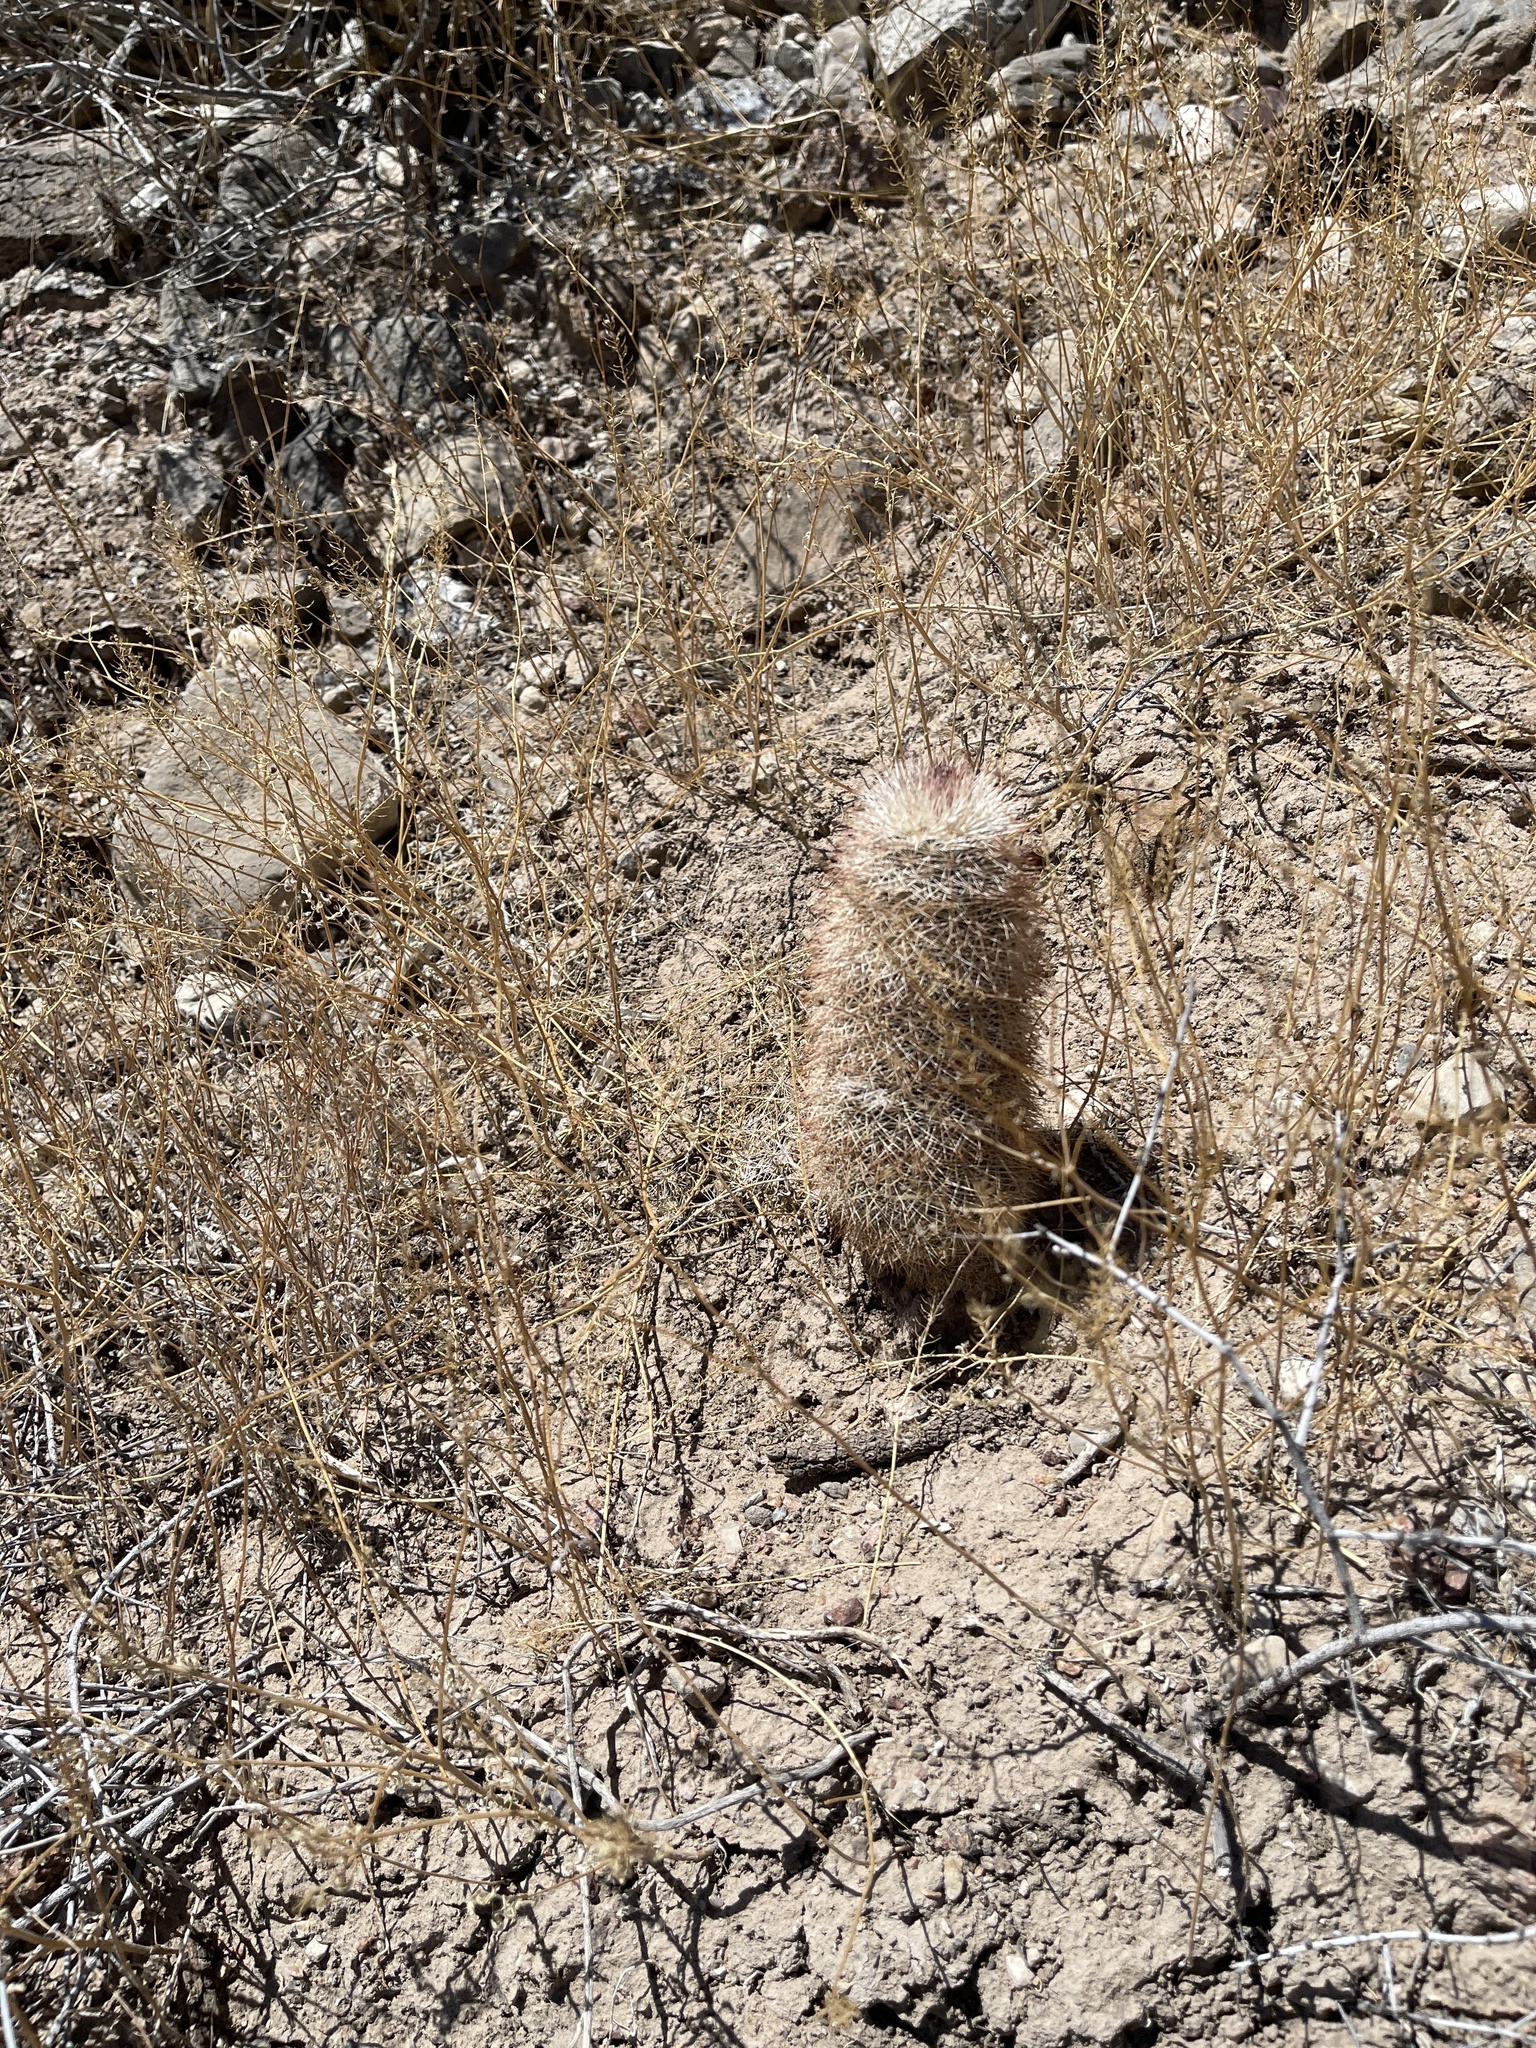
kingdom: Plantae
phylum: Tracheophyta
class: Magnoliopsida
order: Caryophyllales
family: Cactaceae
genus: Echinocereus
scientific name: Echinocereus dasyacanthus
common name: Spiny hedgehog cactus
